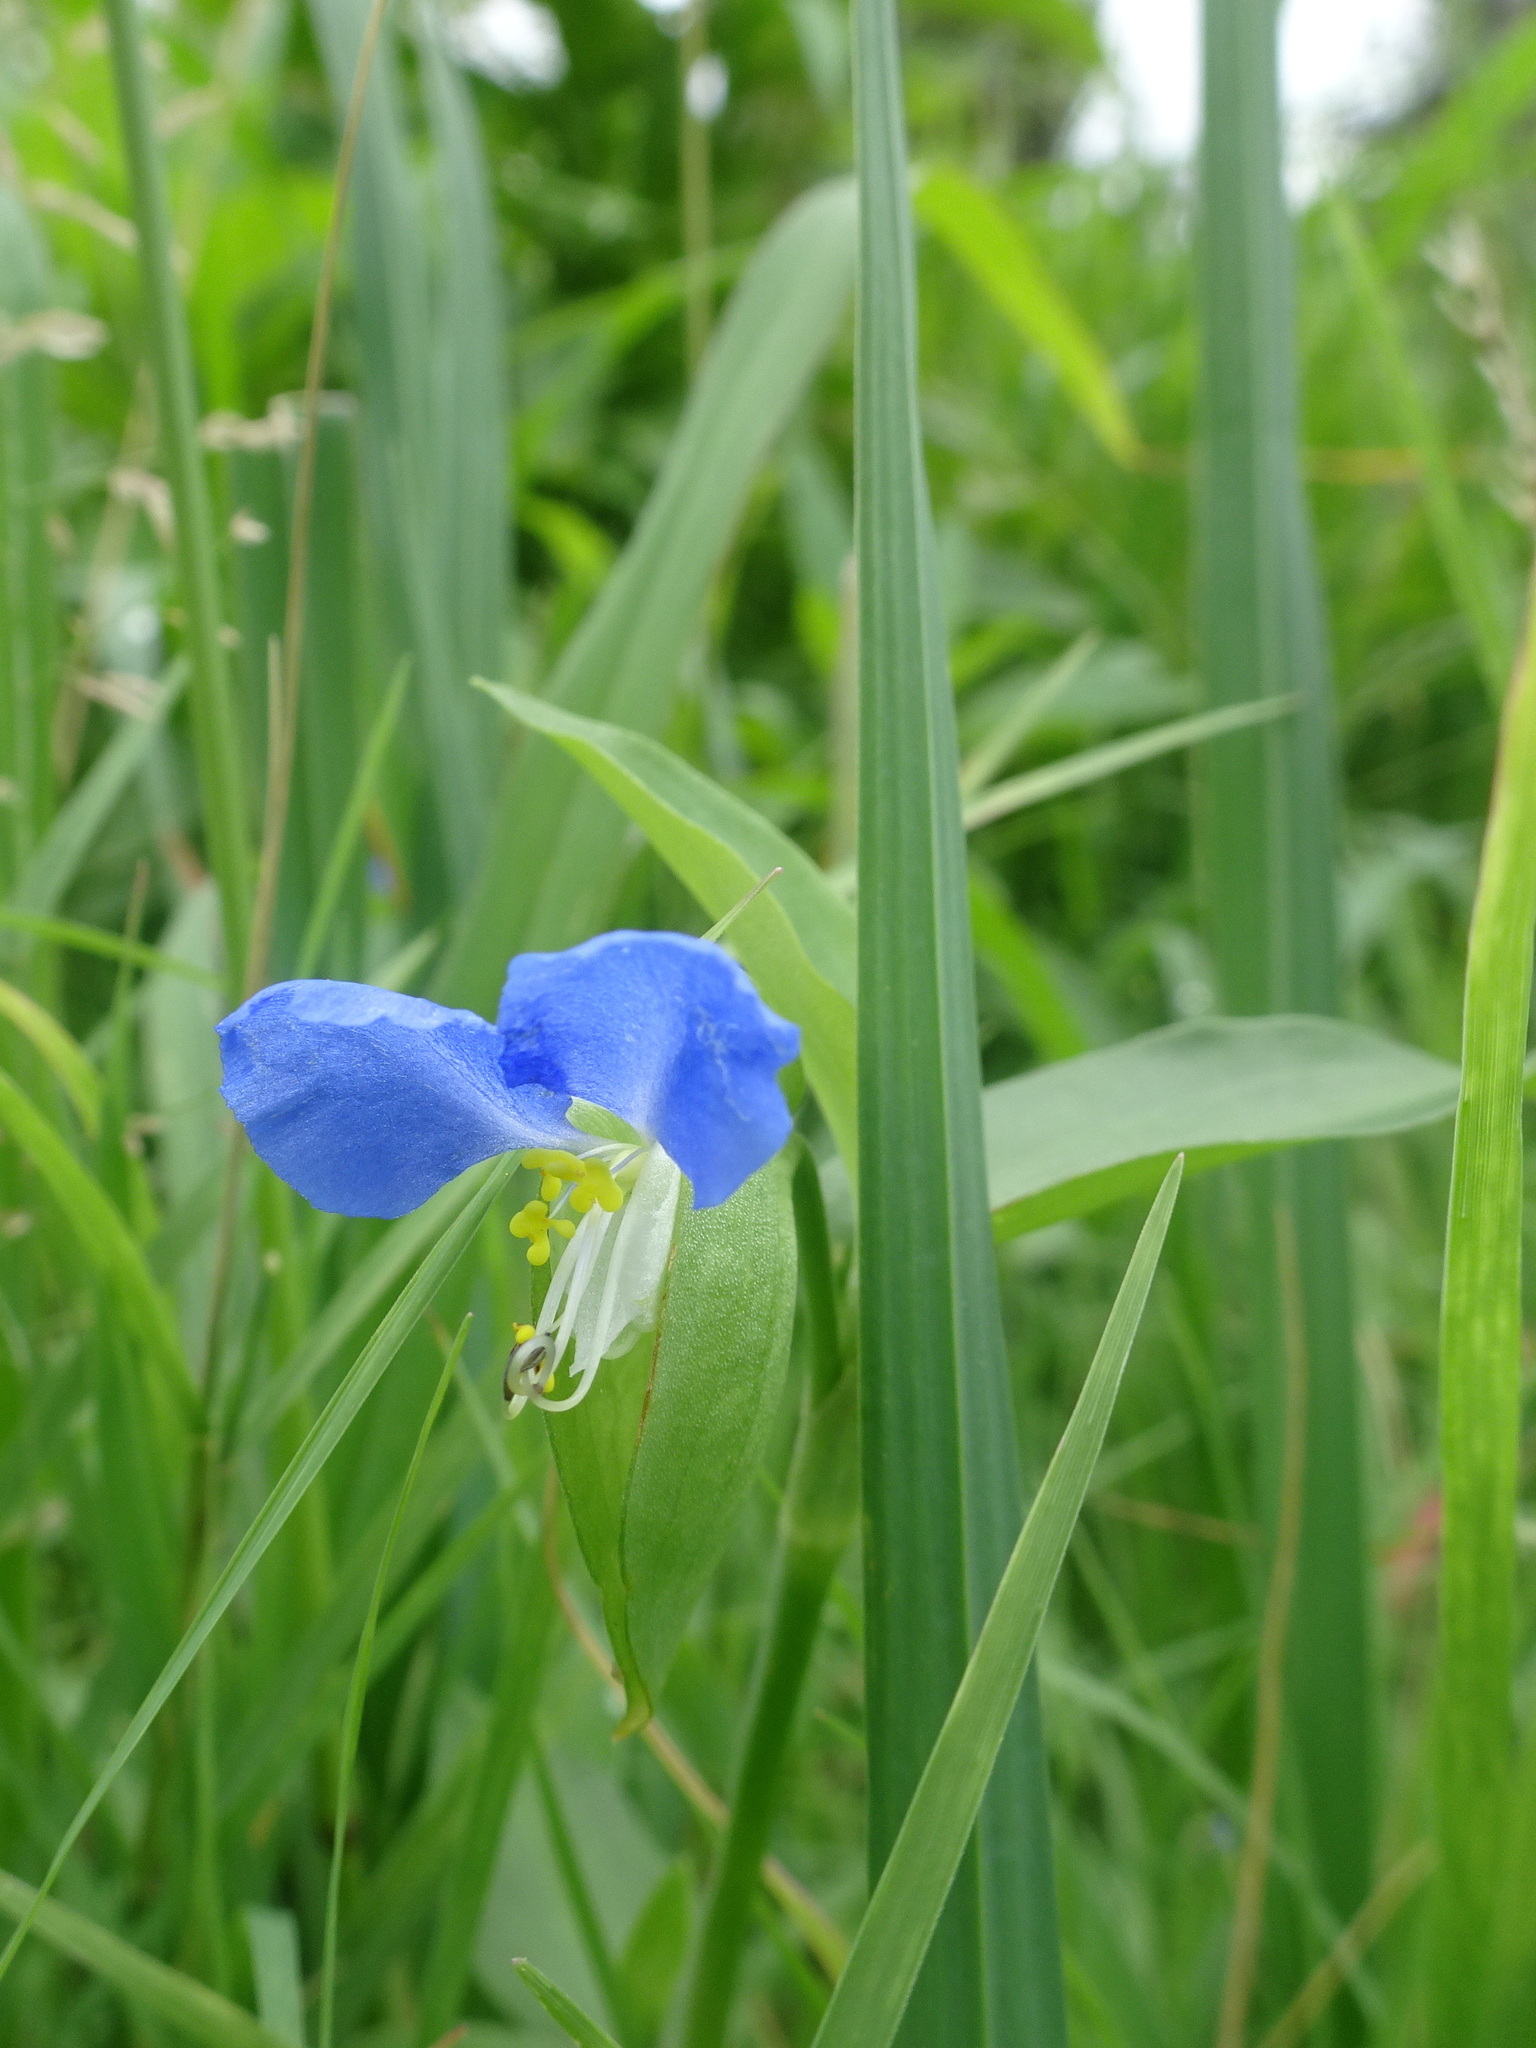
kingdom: Plantae
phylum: Tracheophyta
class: Liliopsida
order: Commelinales
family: Commelinaceae
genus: Commelina
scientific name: Commelina communis
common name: Asiatic dayflower
